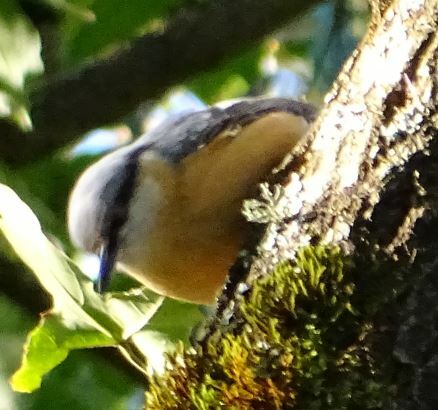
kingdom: Animalia
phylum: Chordata
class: Aves
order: Passeriformes
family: Sittidae
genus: Sitta
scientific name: Sitta europaea
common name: Eurasian nuthatch
